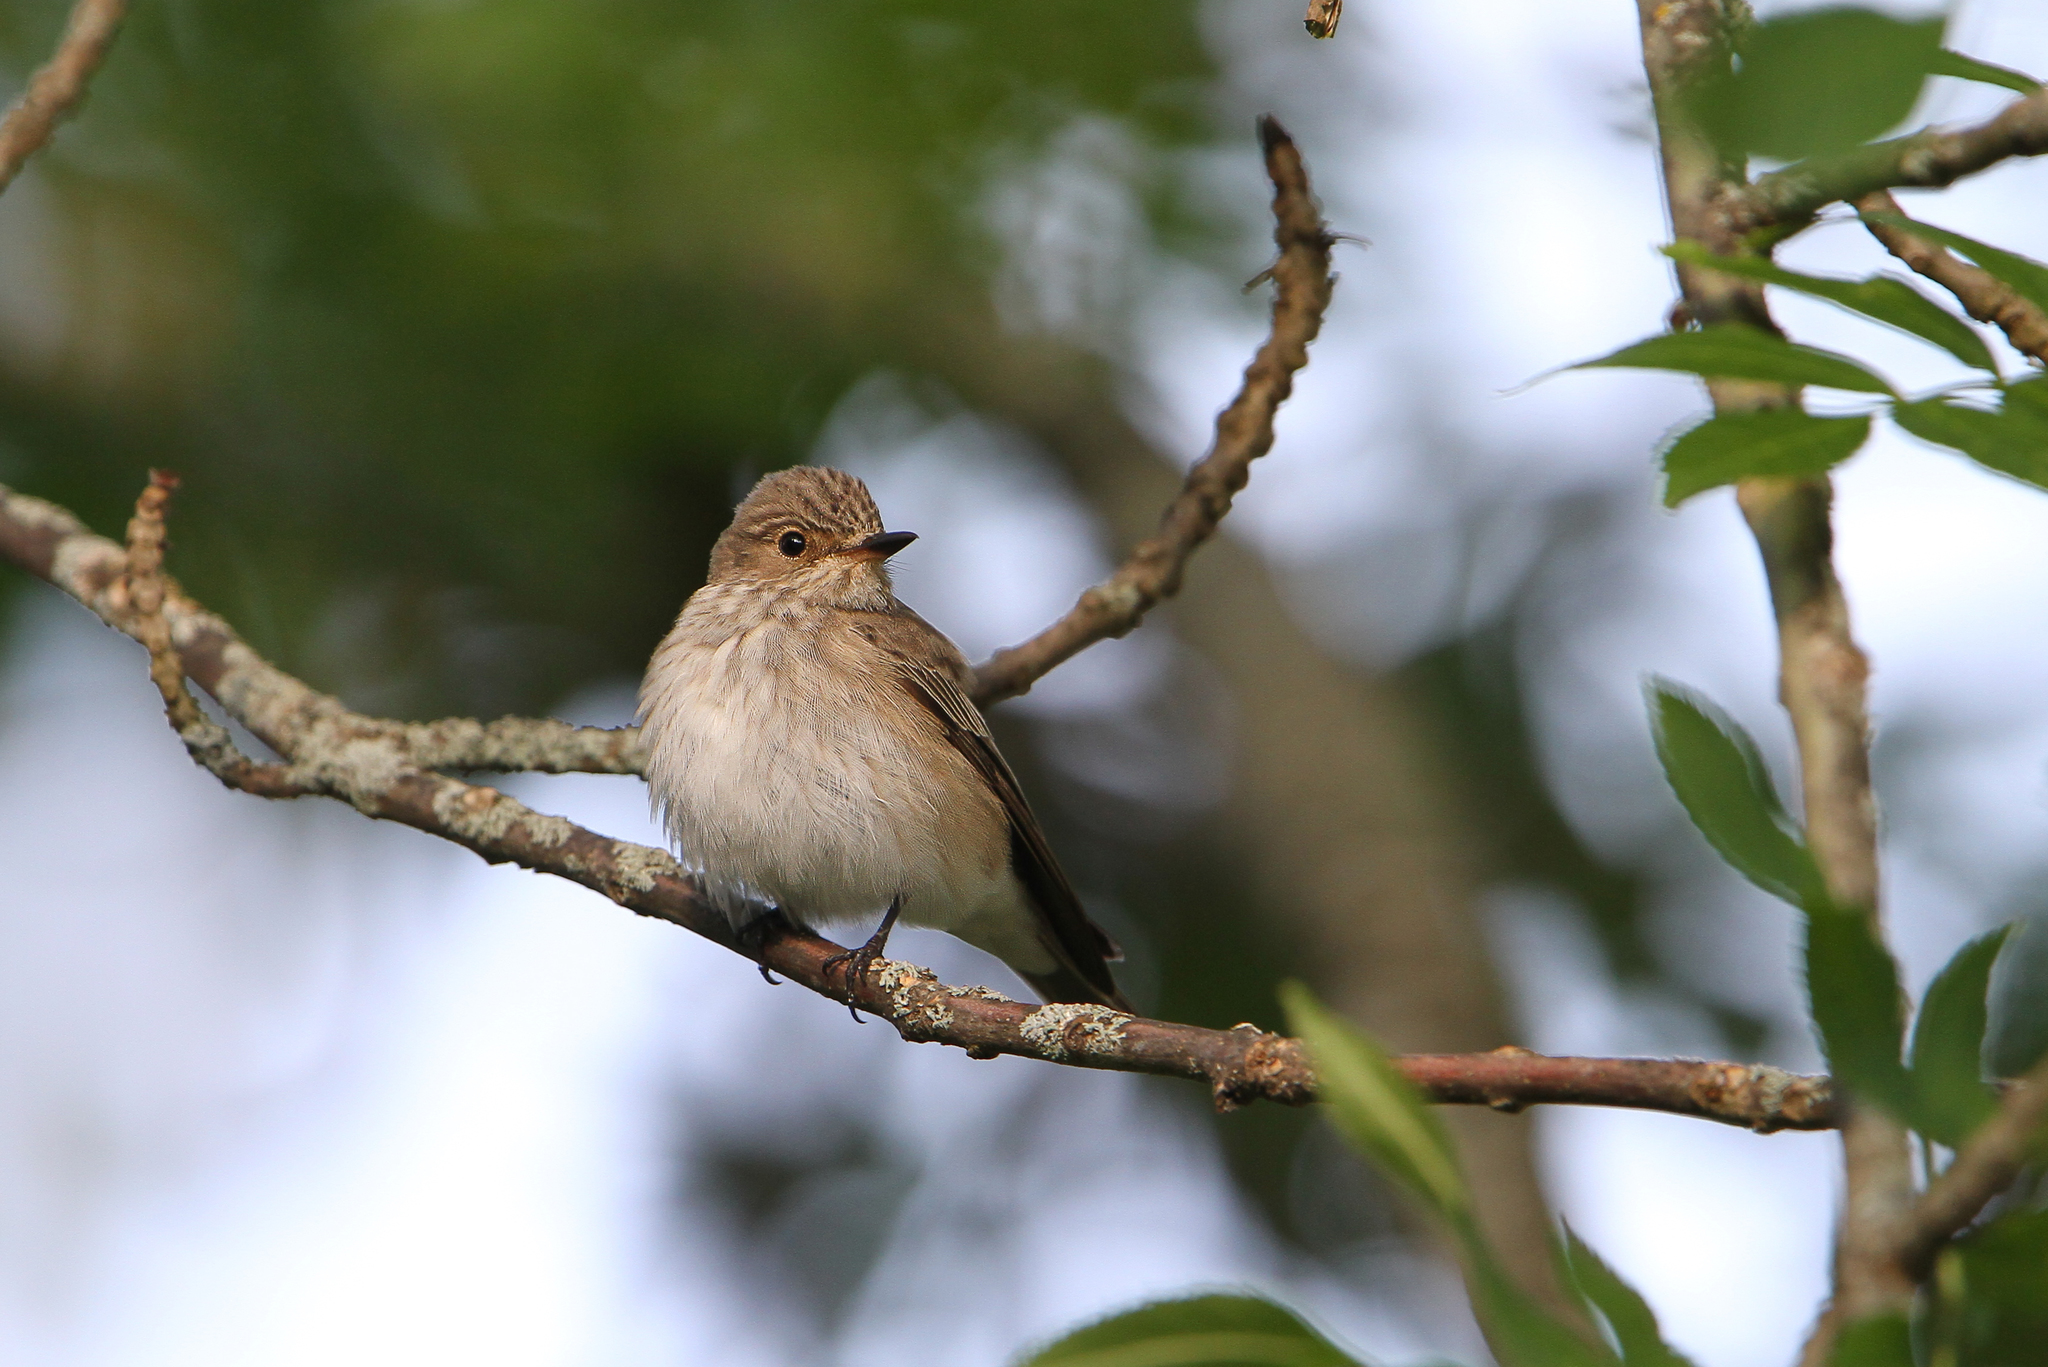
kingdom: Animalia
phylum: Chordata
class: Aves
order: Passeriformes
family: Muscicapidae
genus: Muscicapa
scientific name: Muscicapa striata
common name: Spotted flycatcher
